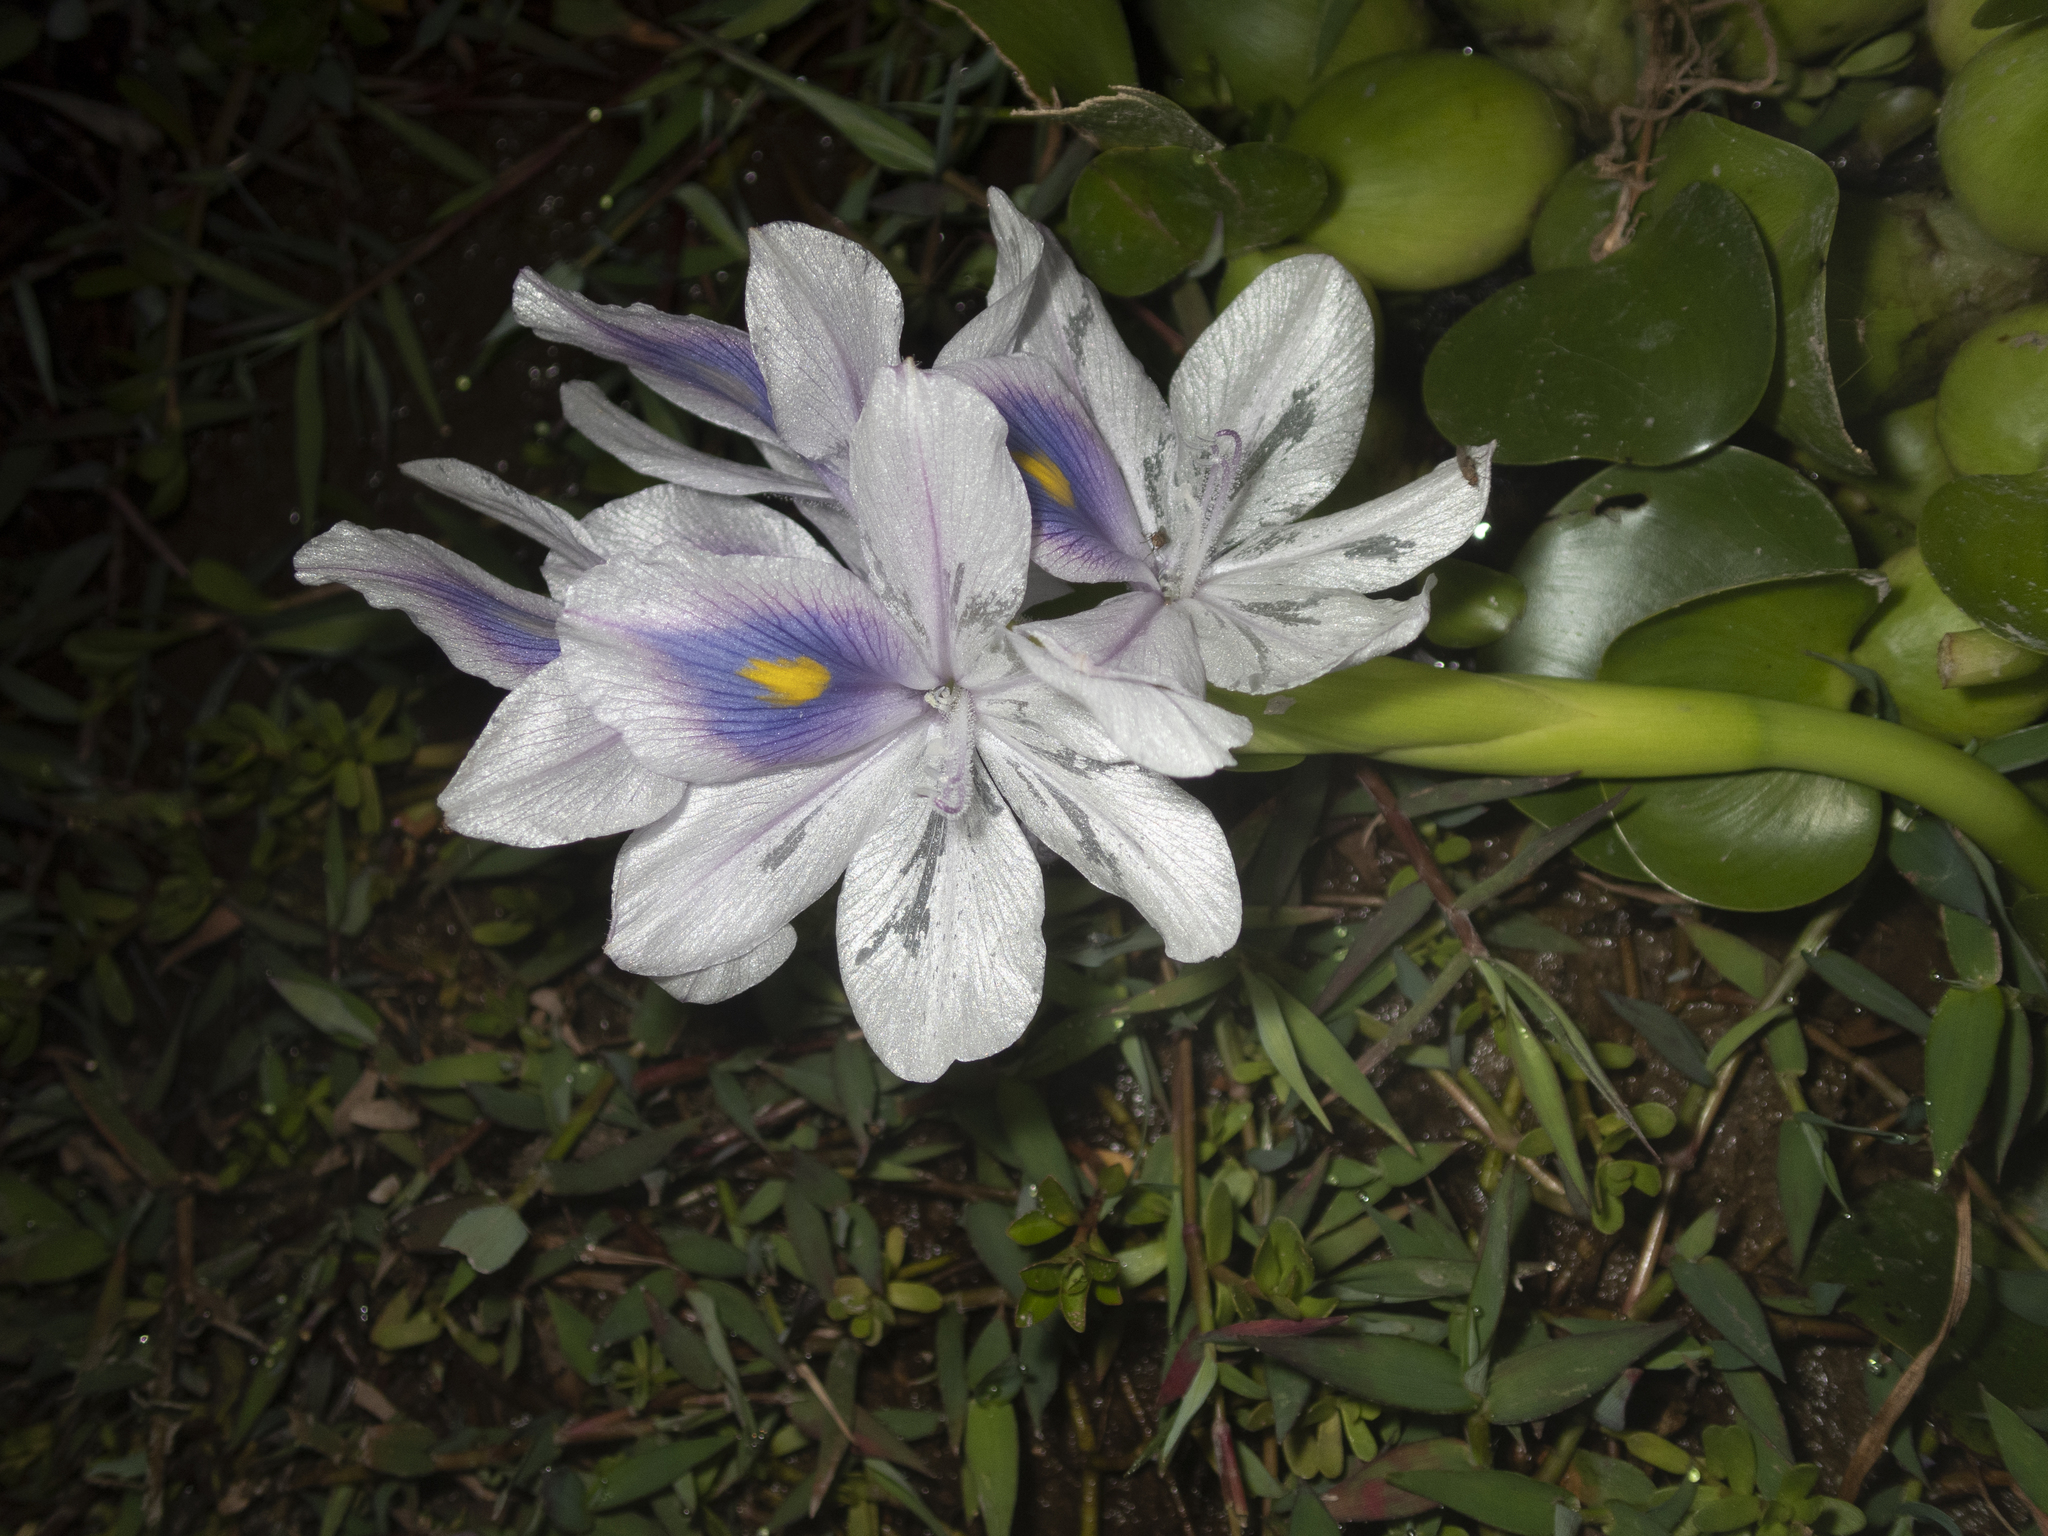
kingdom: Plantae
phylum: Tracheophyta
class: Liliopsida
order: Commelinales
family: Pontederiaceae
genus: Pontederia
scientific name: Pontederia crassipes
